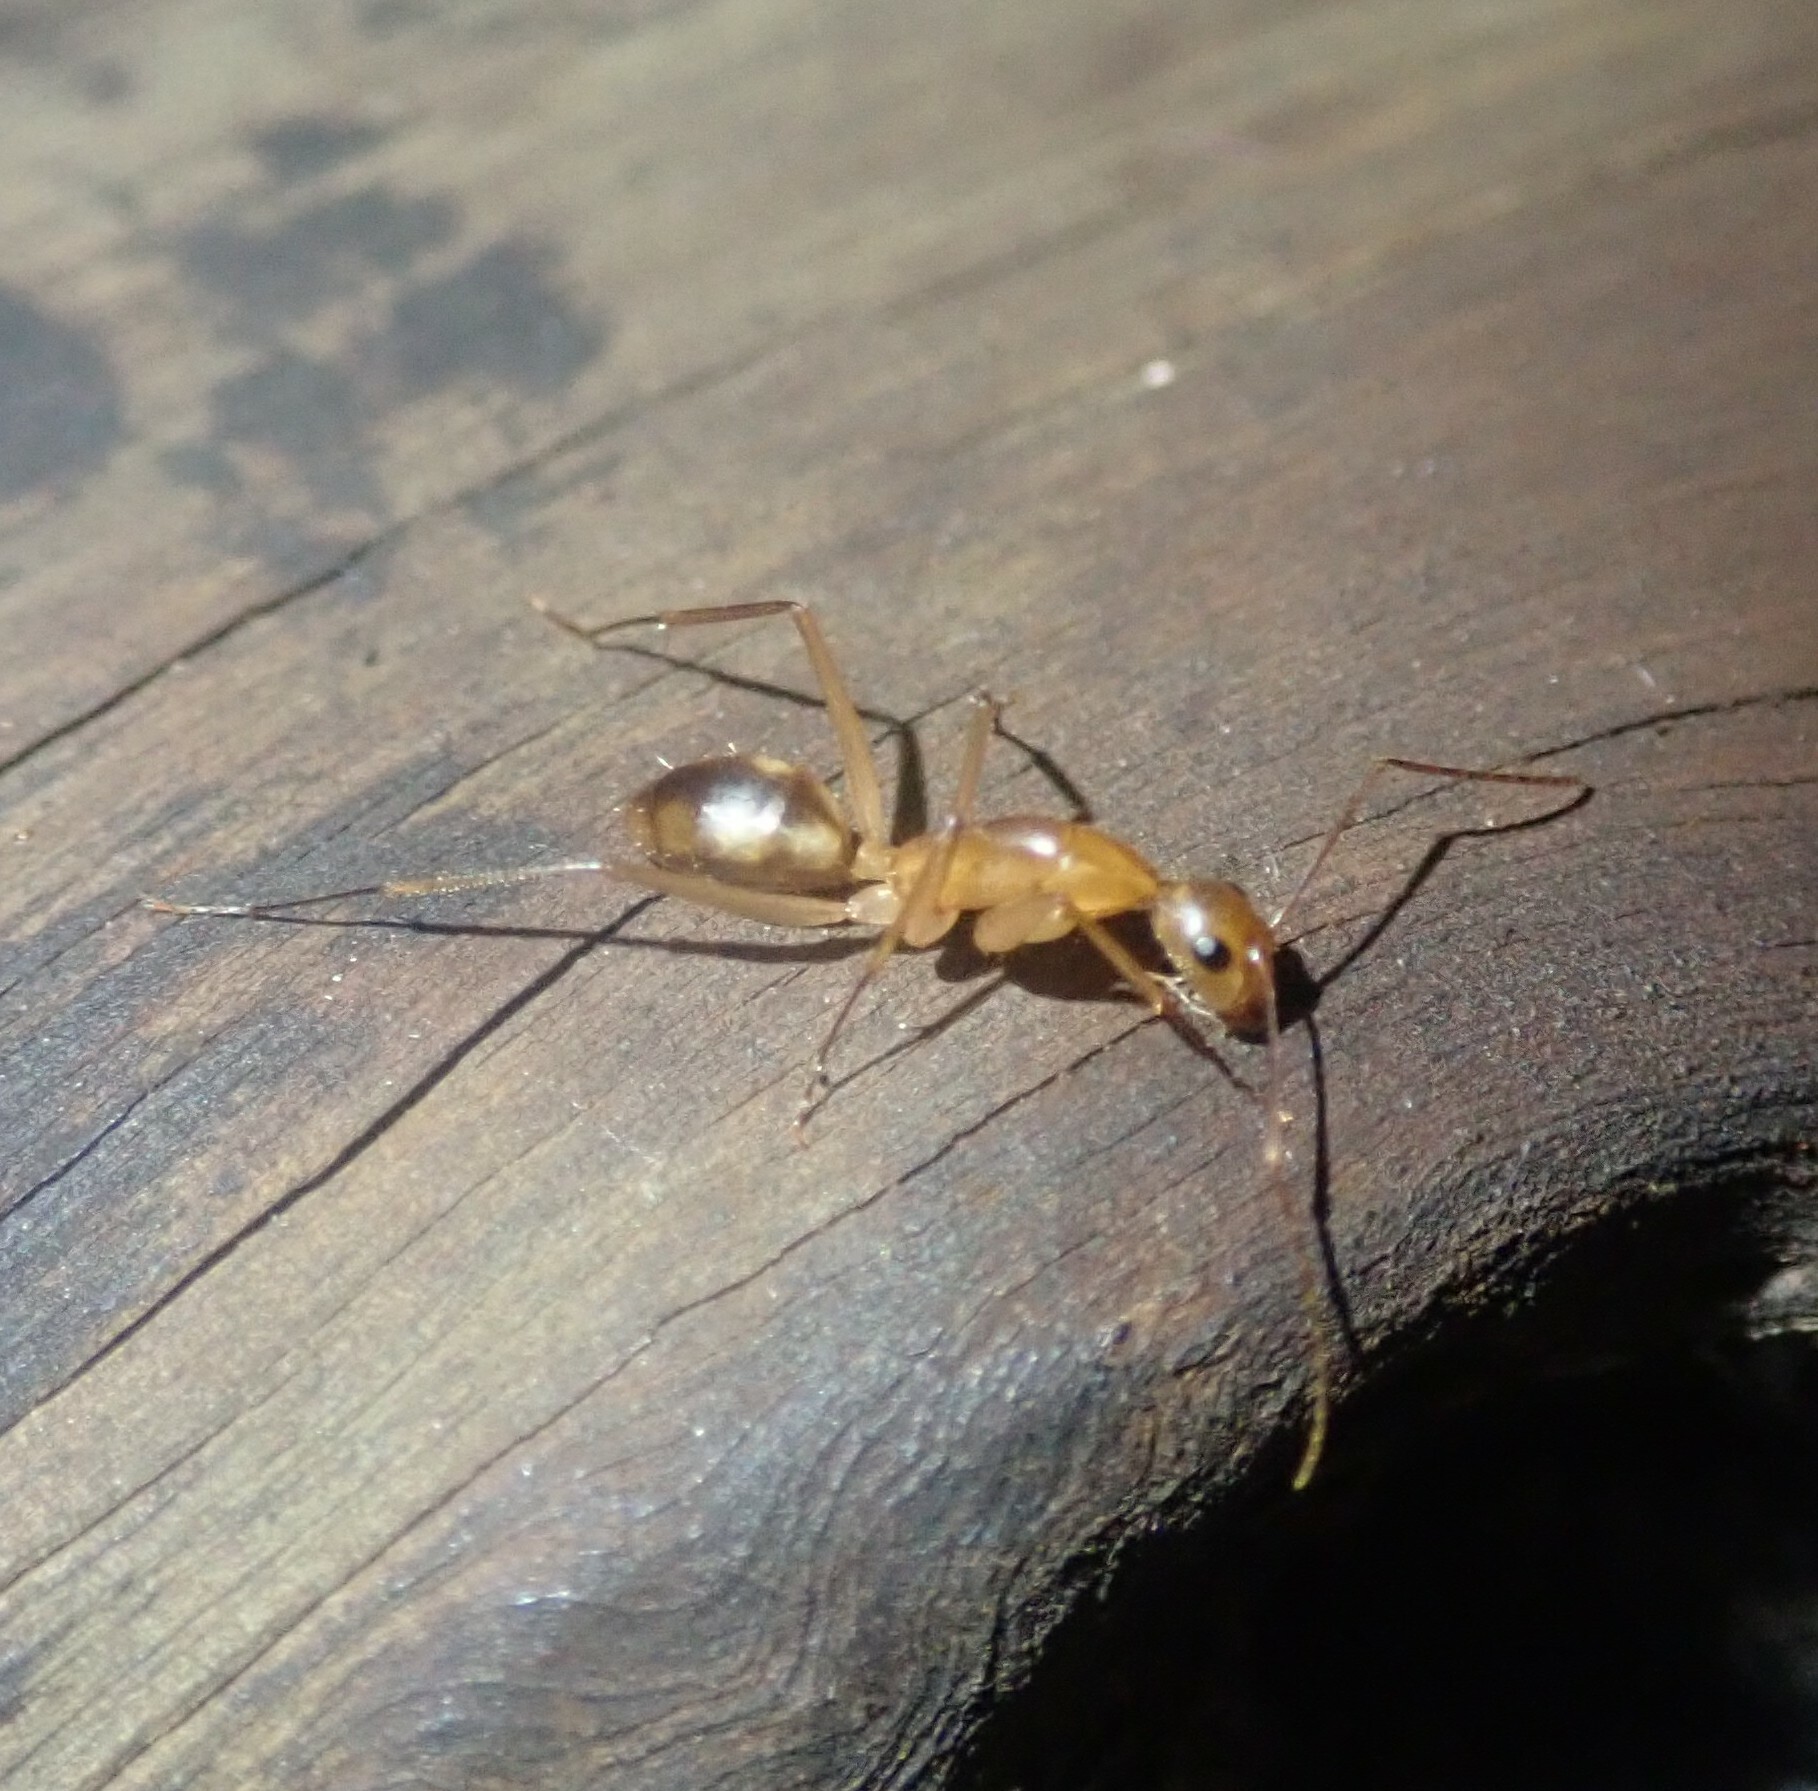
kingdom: Animalia
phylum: Arthropoda
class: Insecta
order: Hymenoptera
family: Formicidae
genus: Camponotus
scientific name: Camponotus maculatus
